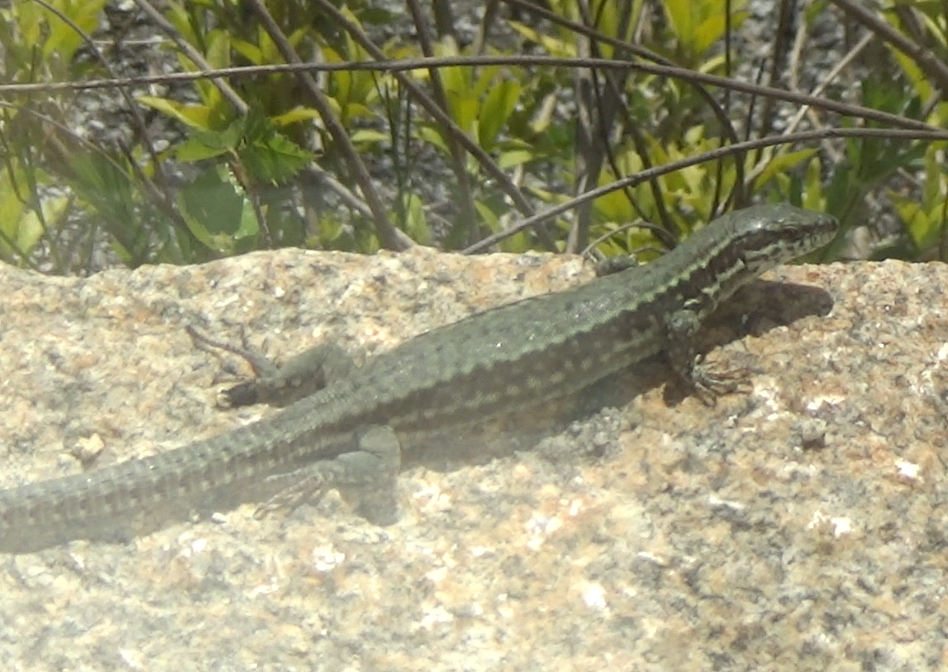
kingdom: Animalia
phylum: Chordata
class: Squamata
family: Lacertidae
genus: Podarcis
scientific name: Podarcis muralis
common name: Common wall lizard
